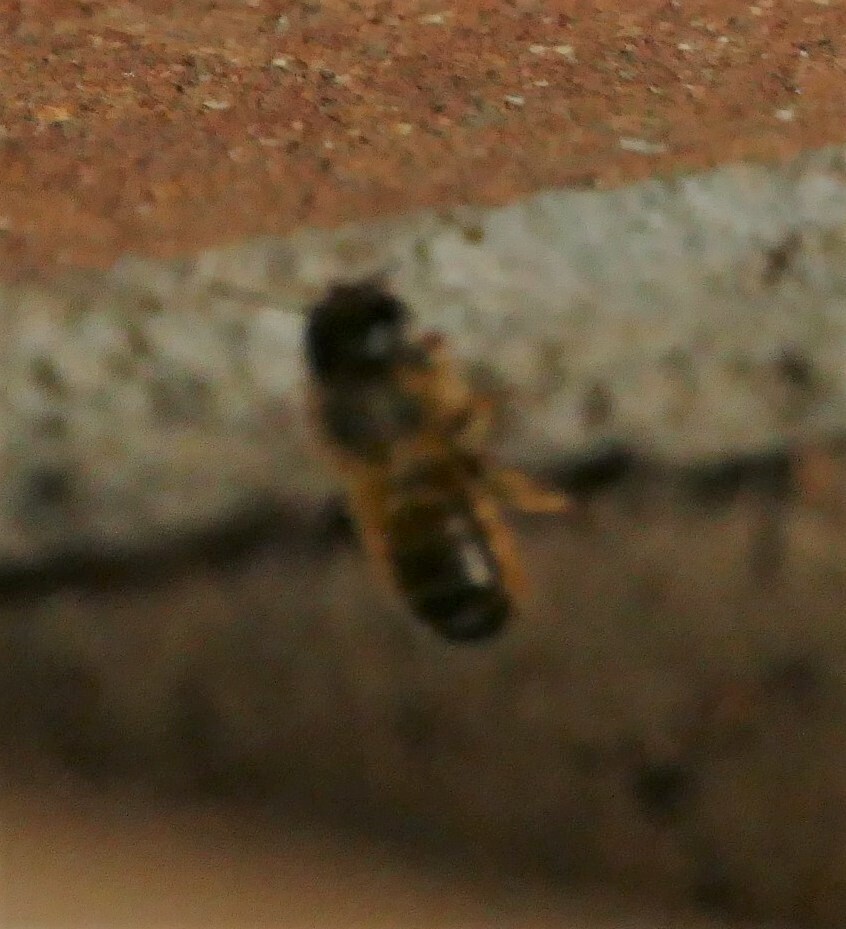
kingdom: Animalia
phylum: Arthropoda
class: Insecta
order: Hymenoptera
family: Megachilidae
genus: Osmia
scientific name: Osmia taurus
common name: Taurus mason bee
